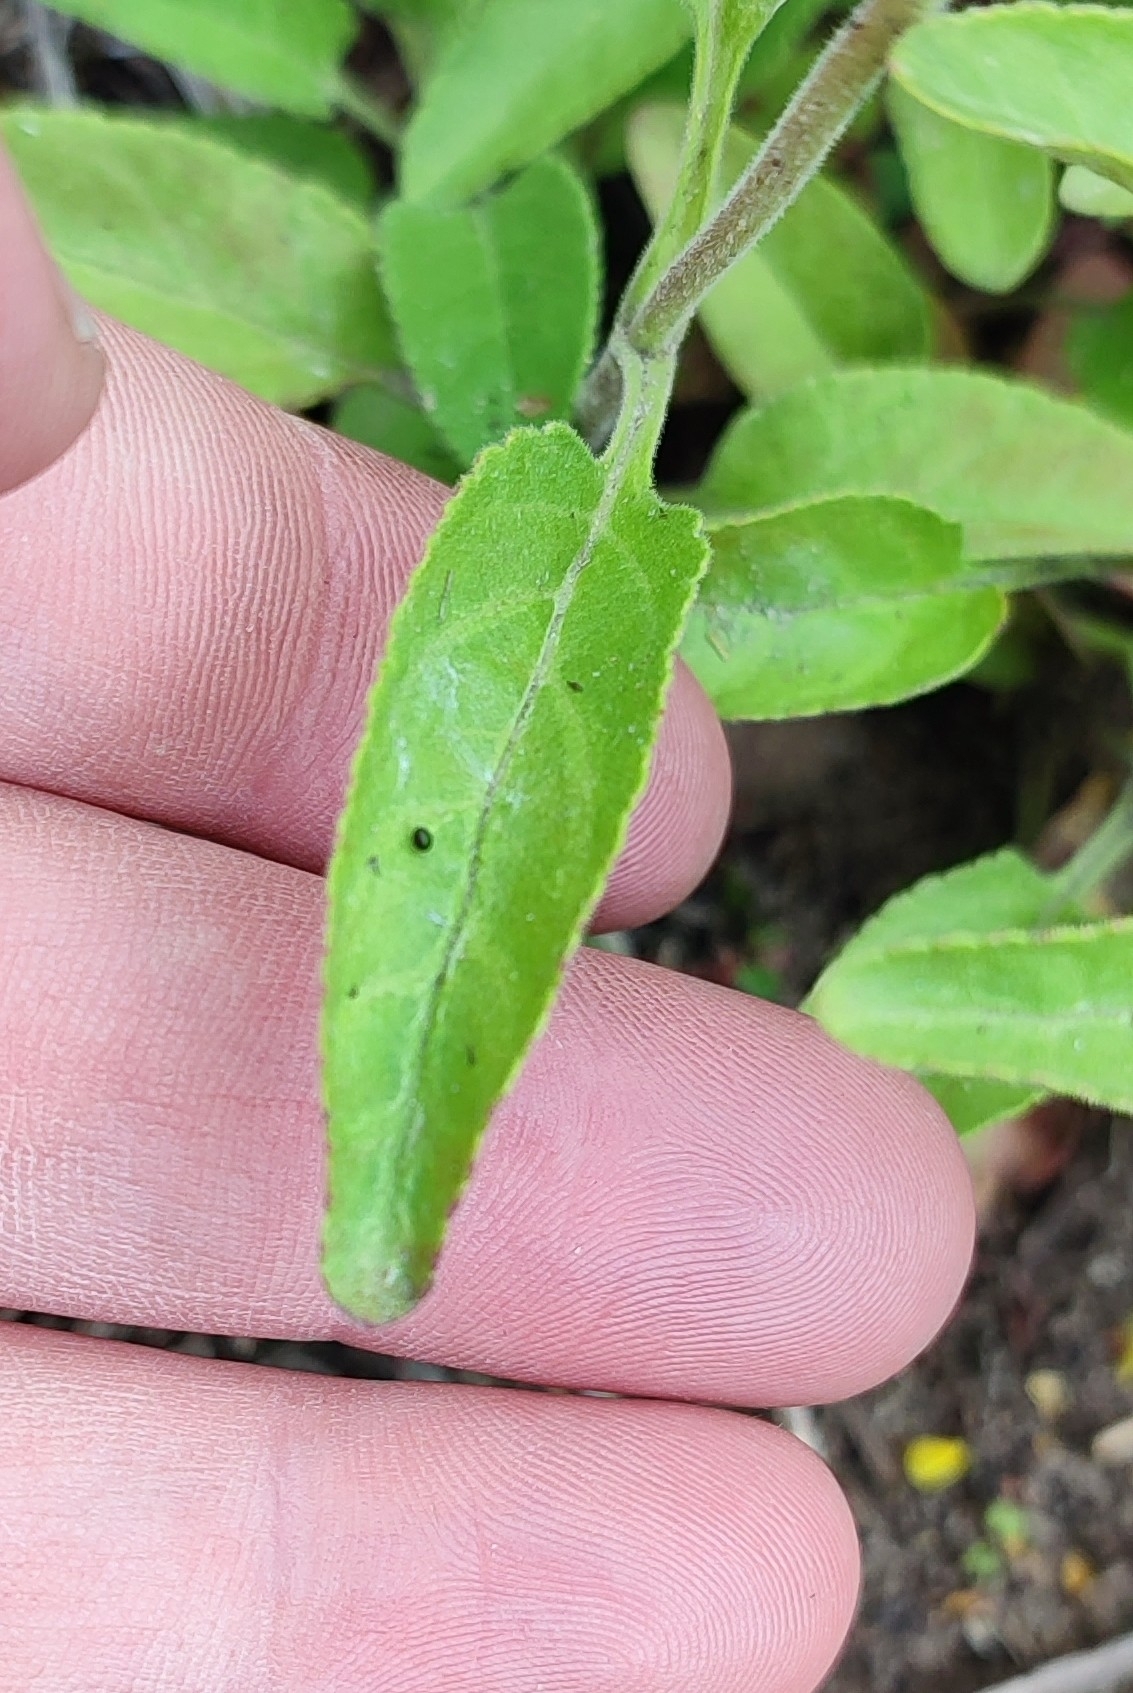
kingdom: Plantae
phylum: Tracheophyta
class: Magnoliopsida
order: Lamiales
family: Plantaginaceae
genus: Veronica
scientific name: Veronica spicata
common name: Spiked speedwell
